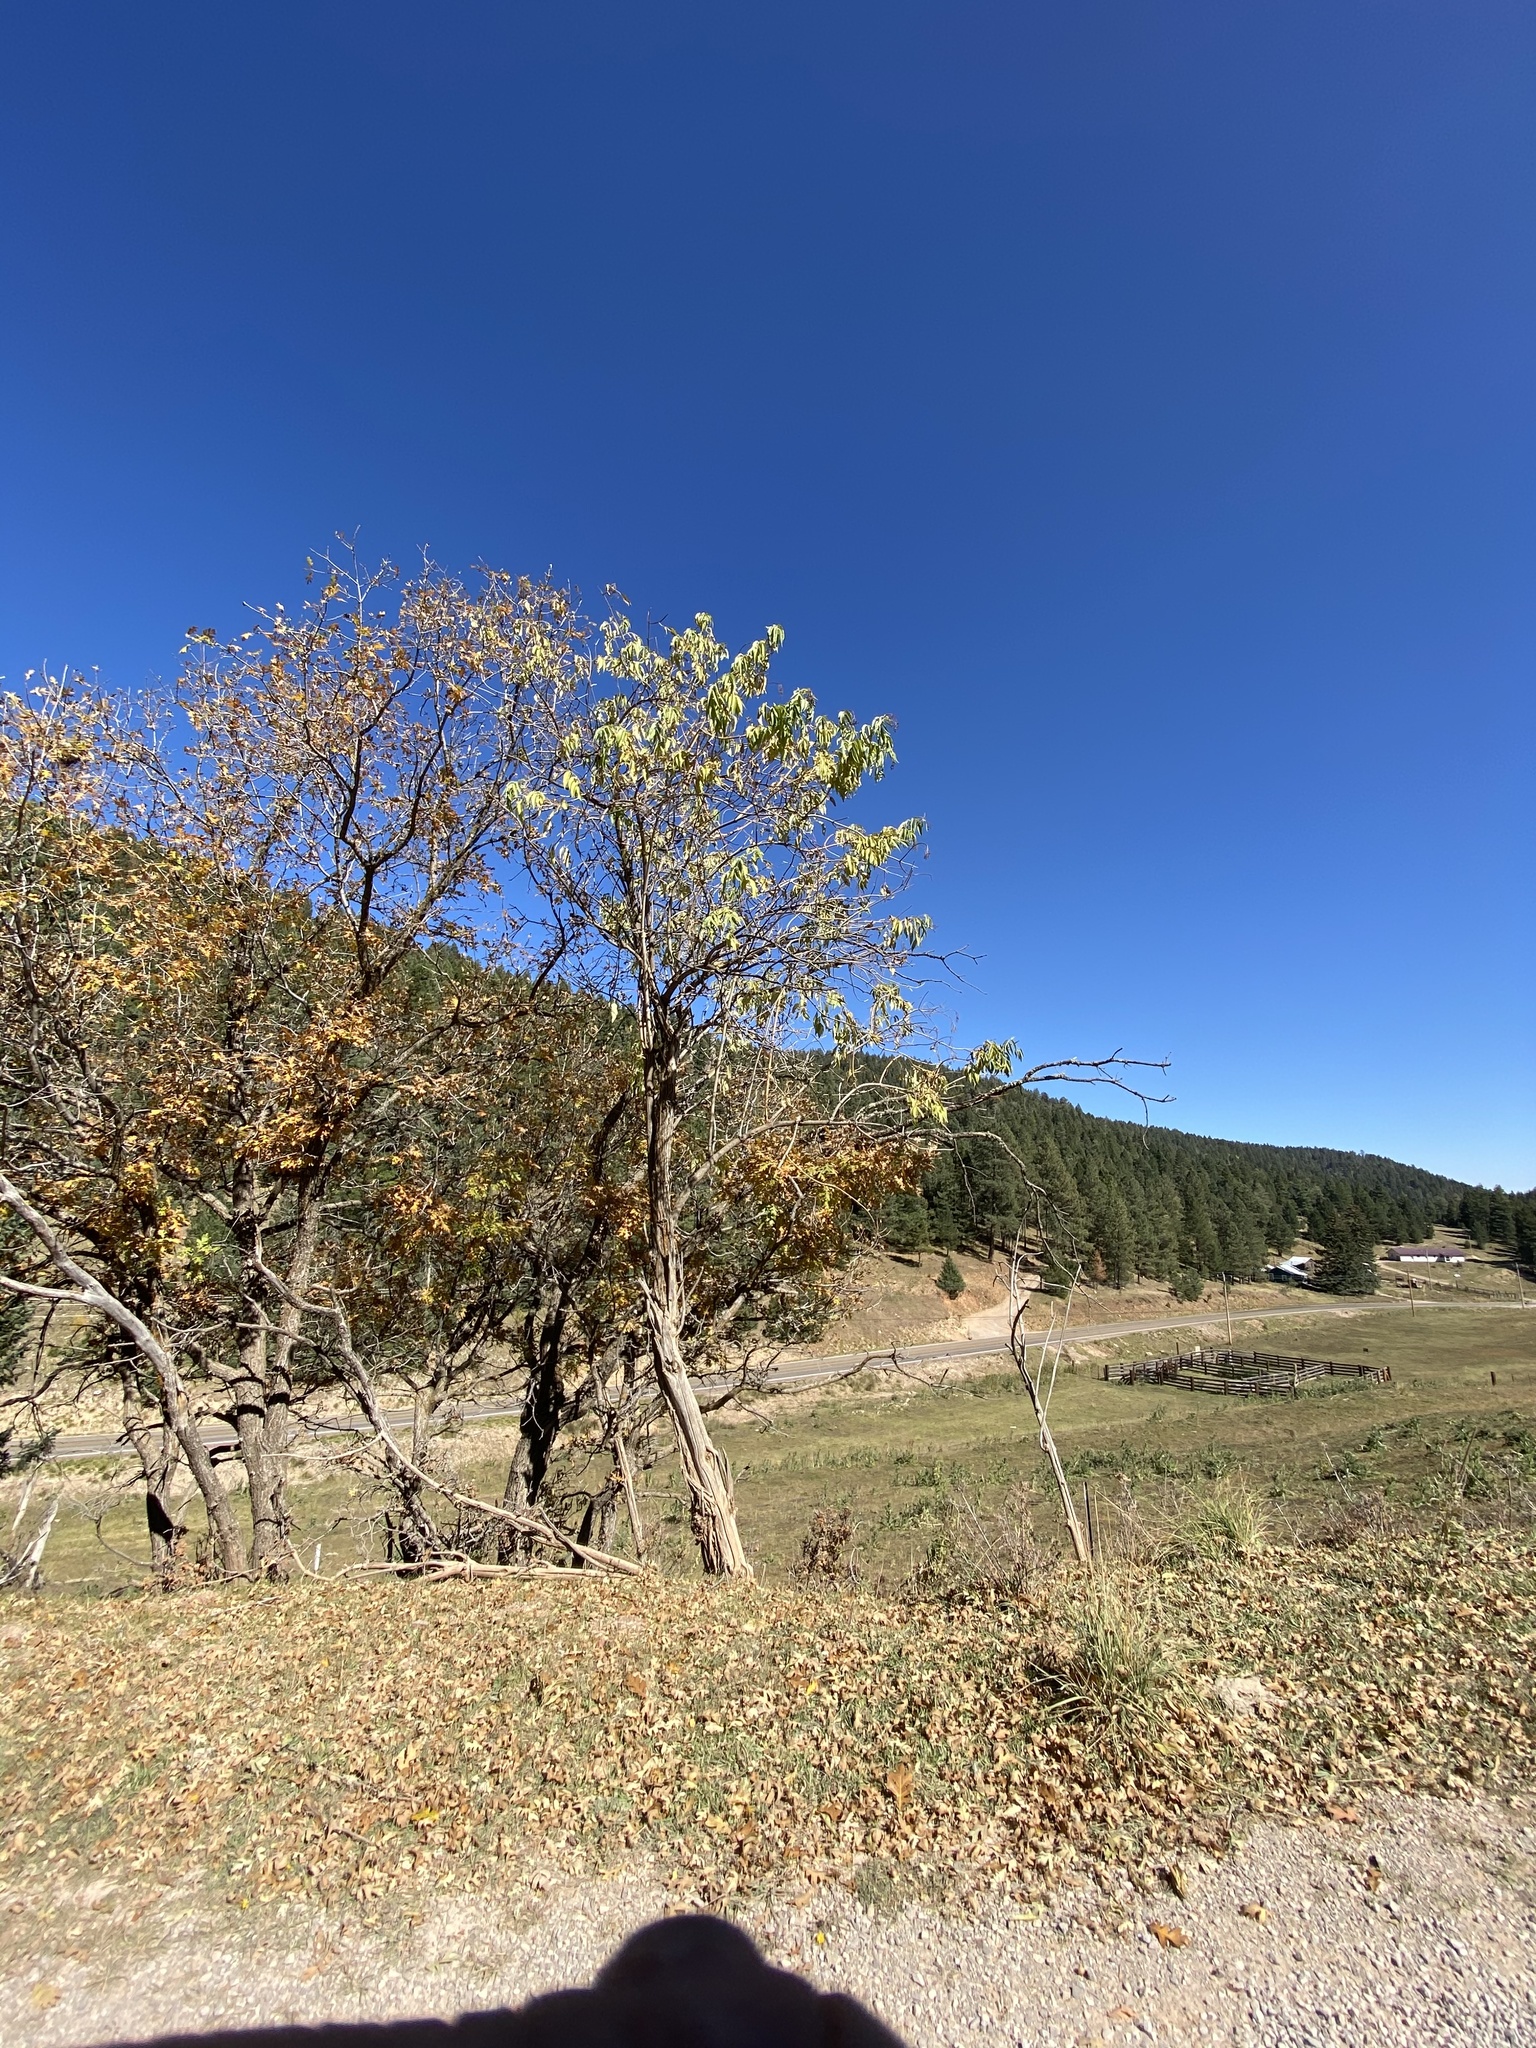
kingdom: Plantae
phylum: Tracheophyta
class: Magnoliopsida
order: Dipsacales
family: Viburnaceae
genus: Sambucus
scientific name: Sambucus cerulea
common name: Blue elder
